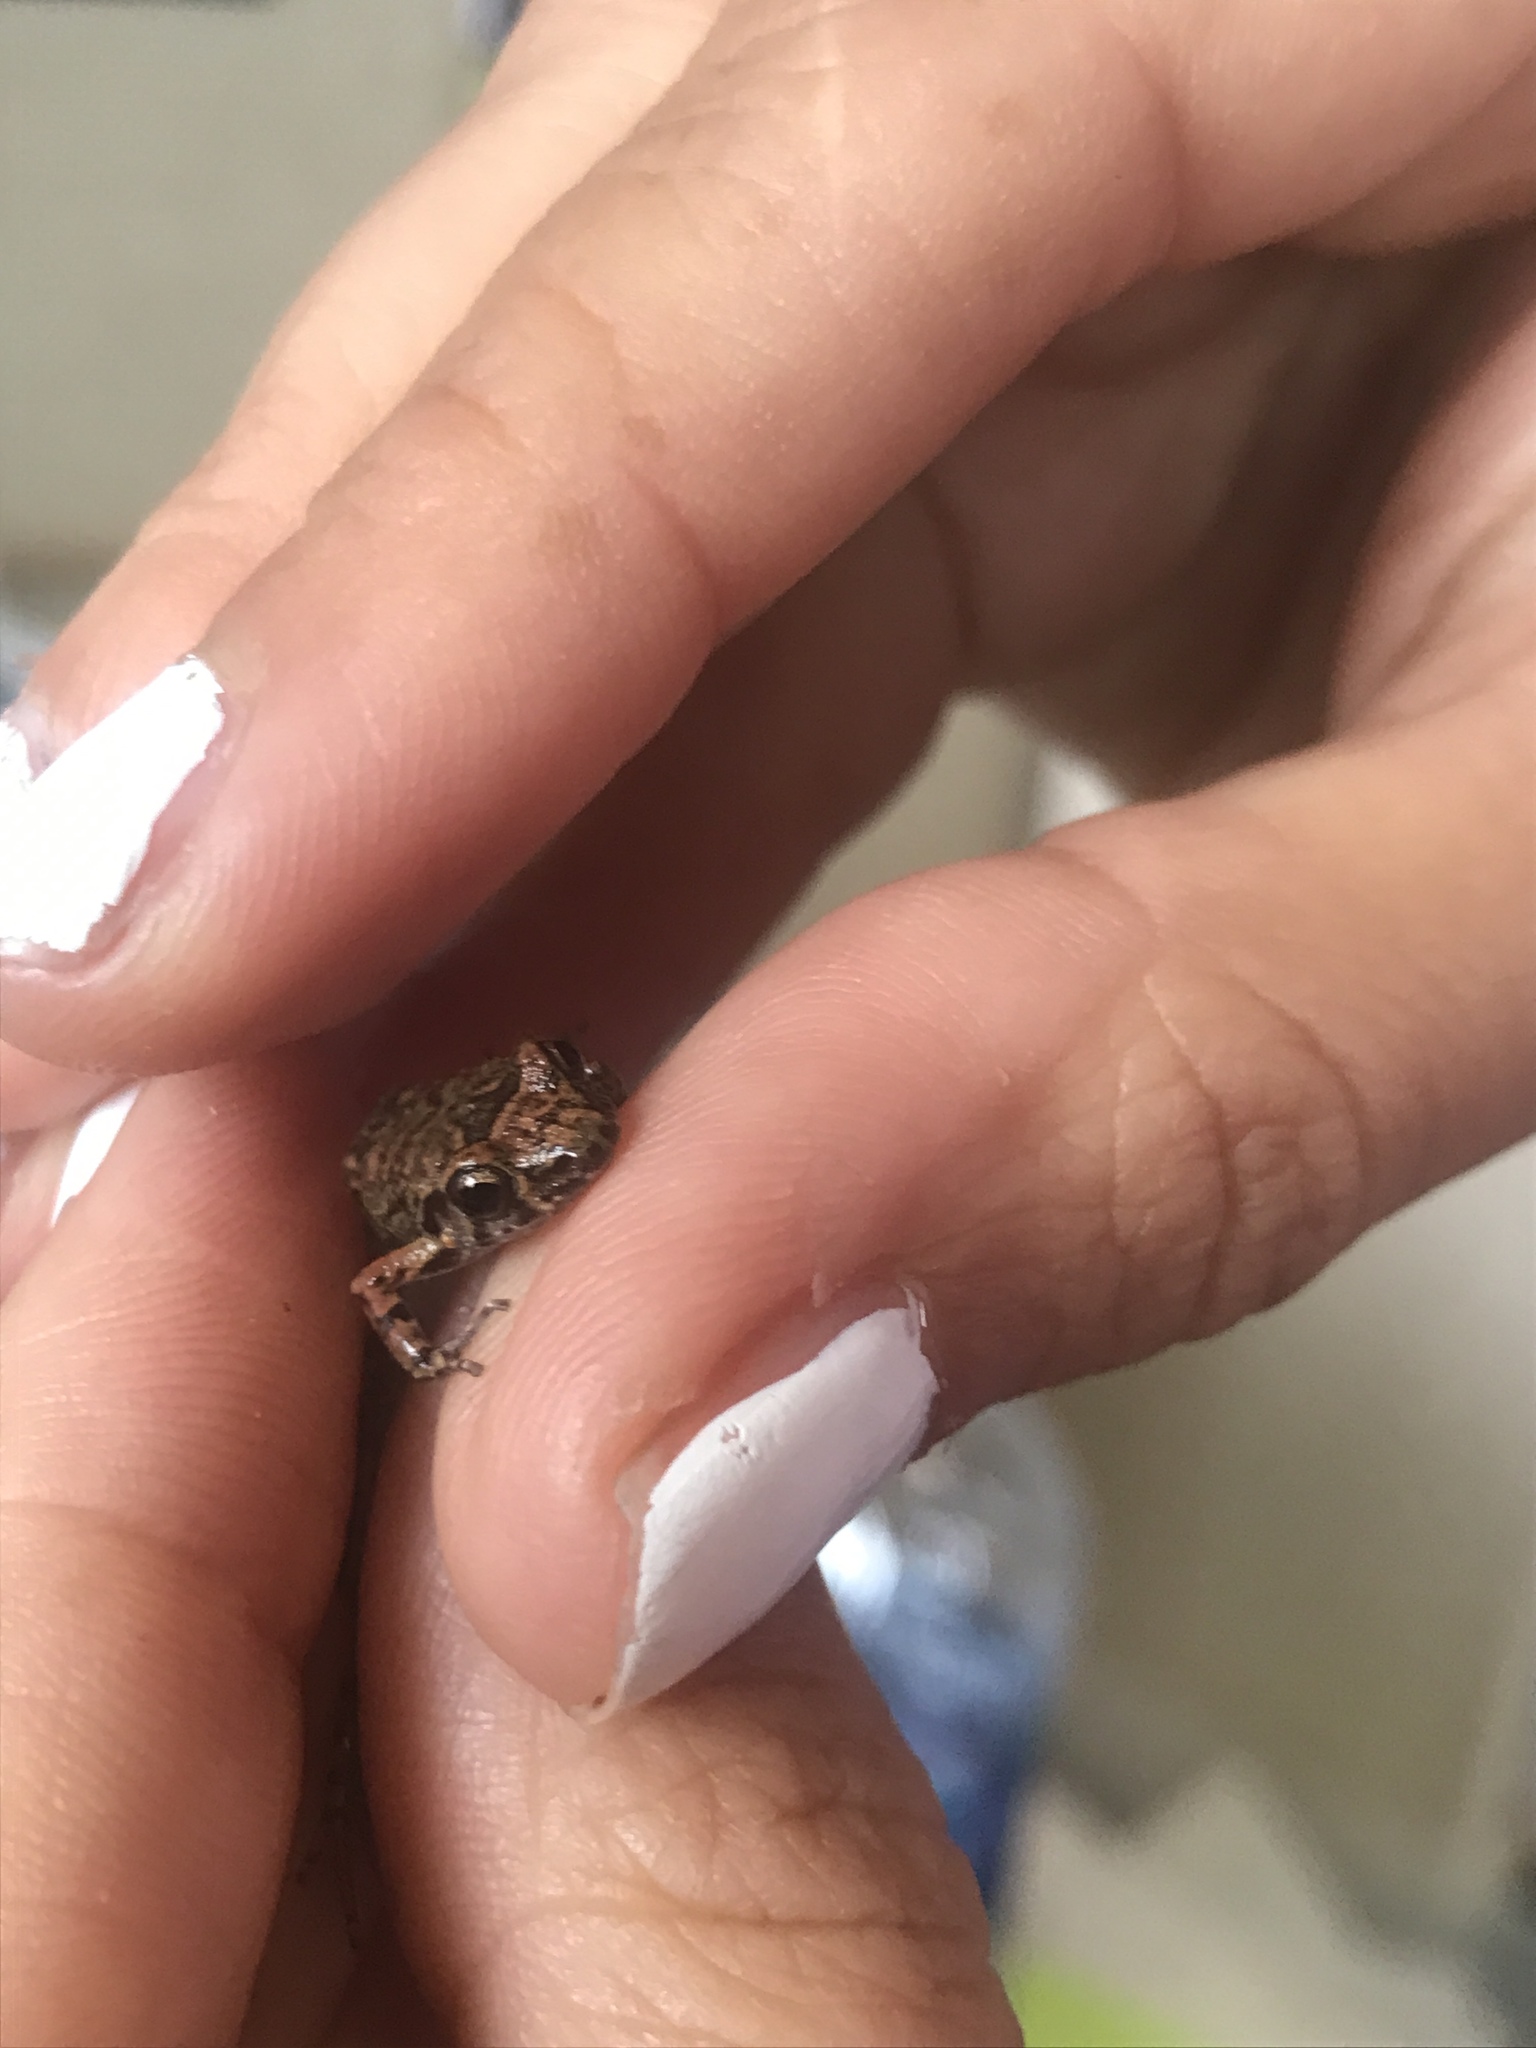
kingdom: Animalia
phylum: Chordata
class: Amphibia
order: Anura
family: Eleutherodactylidae
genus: Eleutherodactylus
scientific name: Eleutherodactylus planirostris
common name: Greenhouse frog
